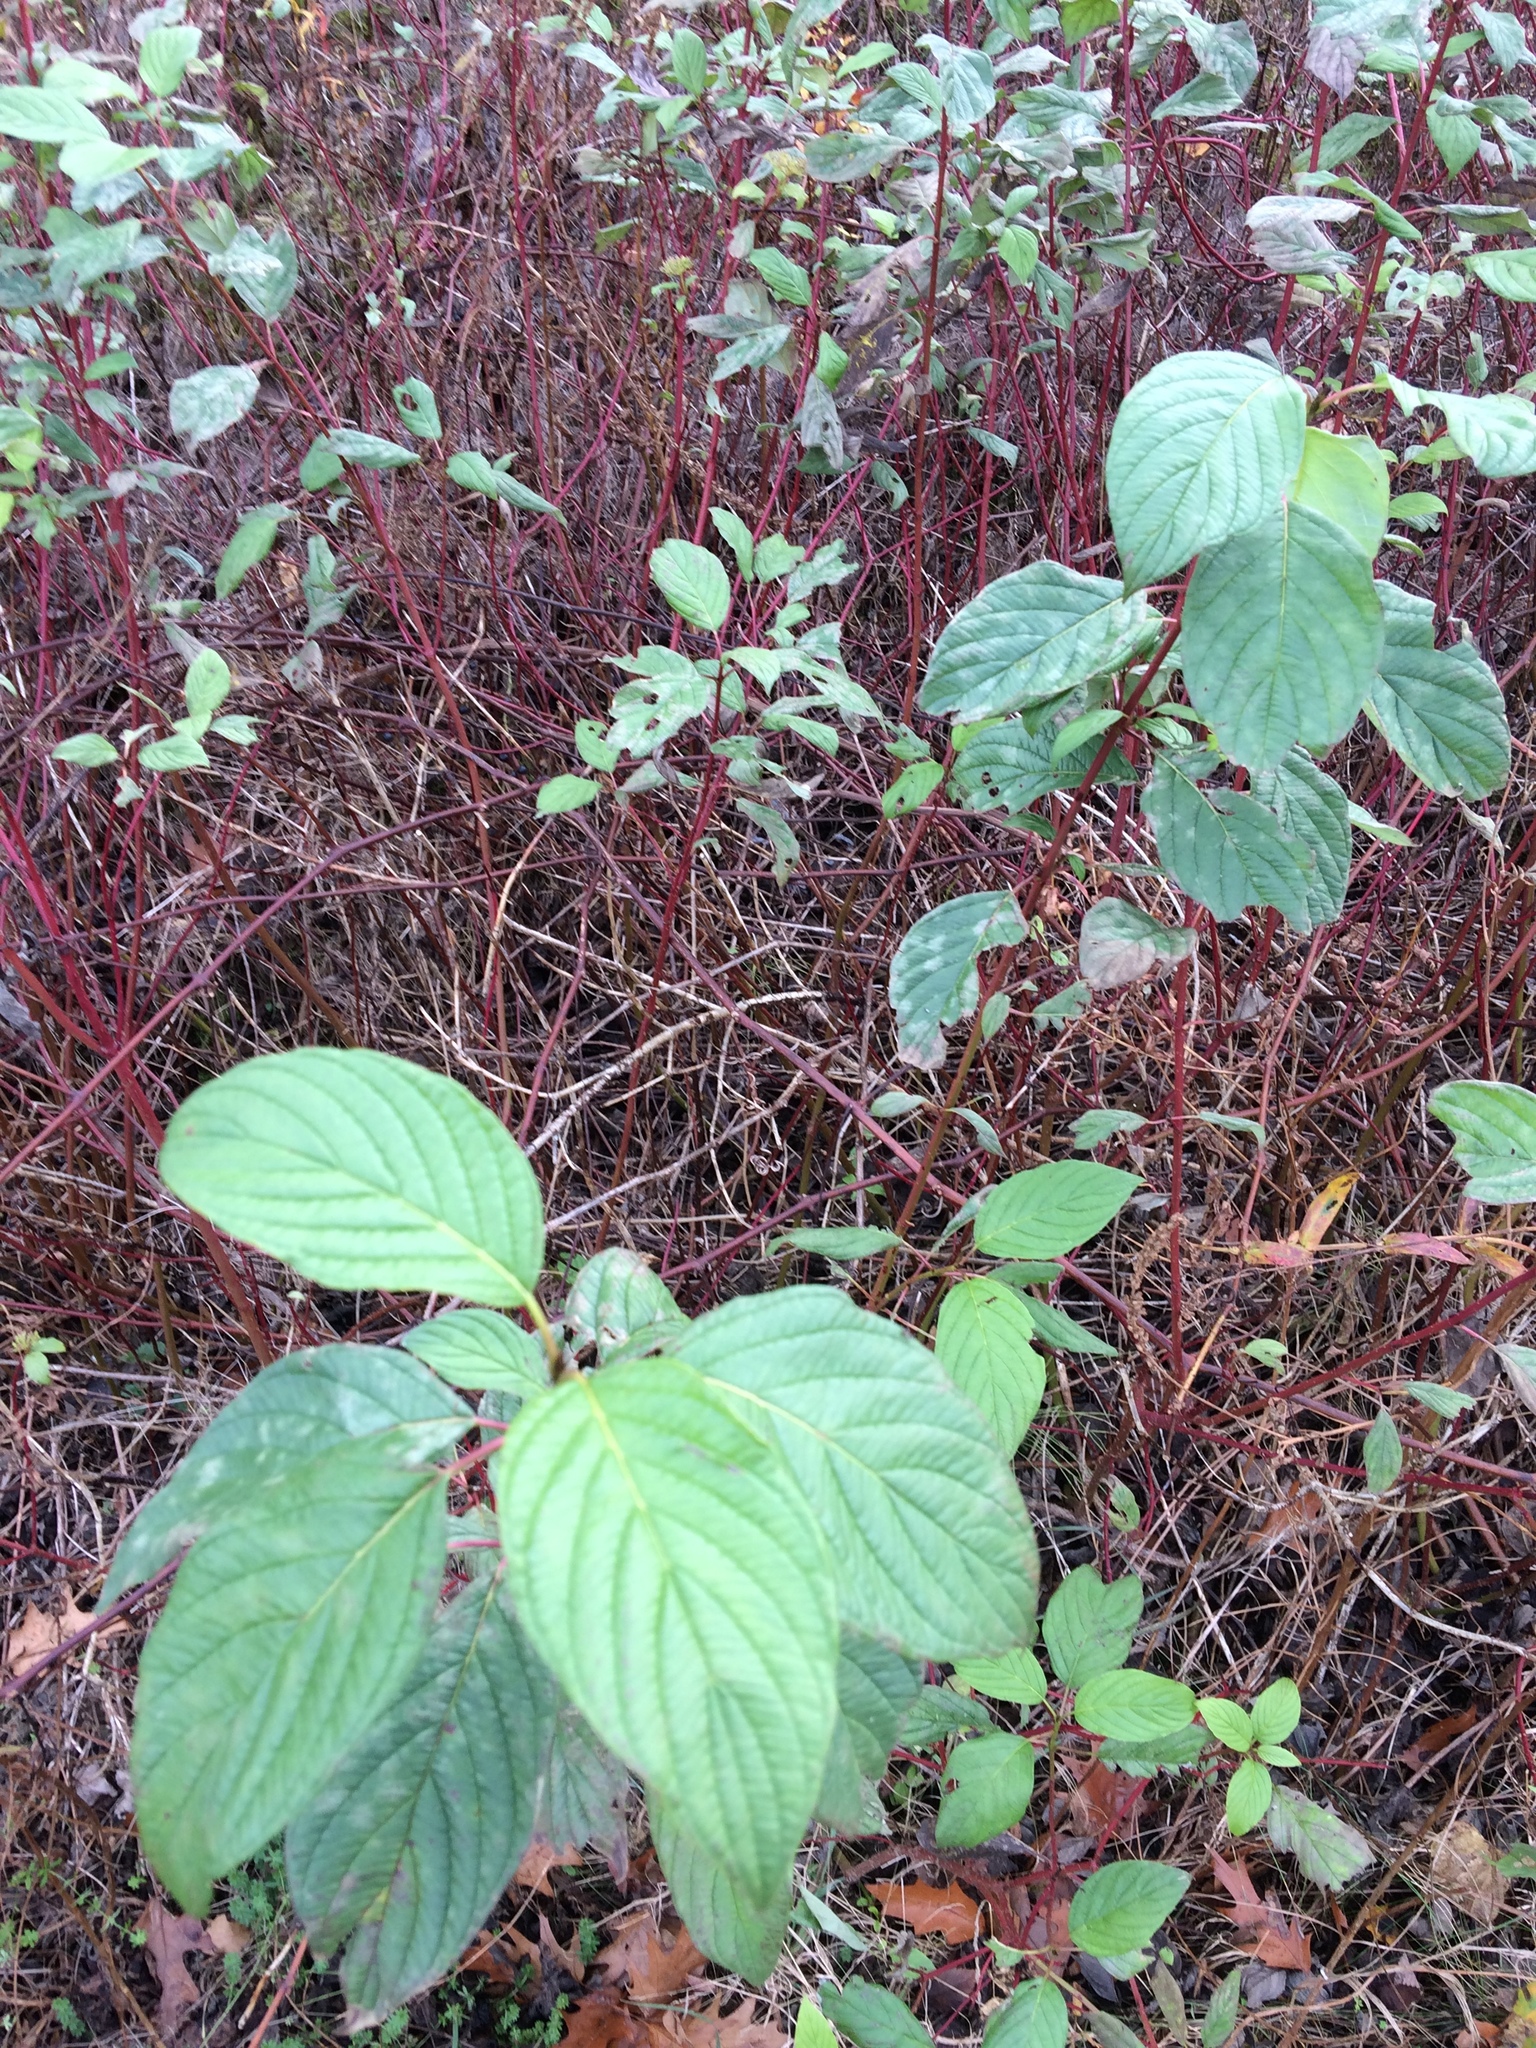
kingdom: Plantae
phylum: Tracheophyta
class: Magnoliopsida
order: Cornales
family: Cornaceae
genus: Cornus
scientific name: Cornus sericea
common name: Red-osier dogwood
